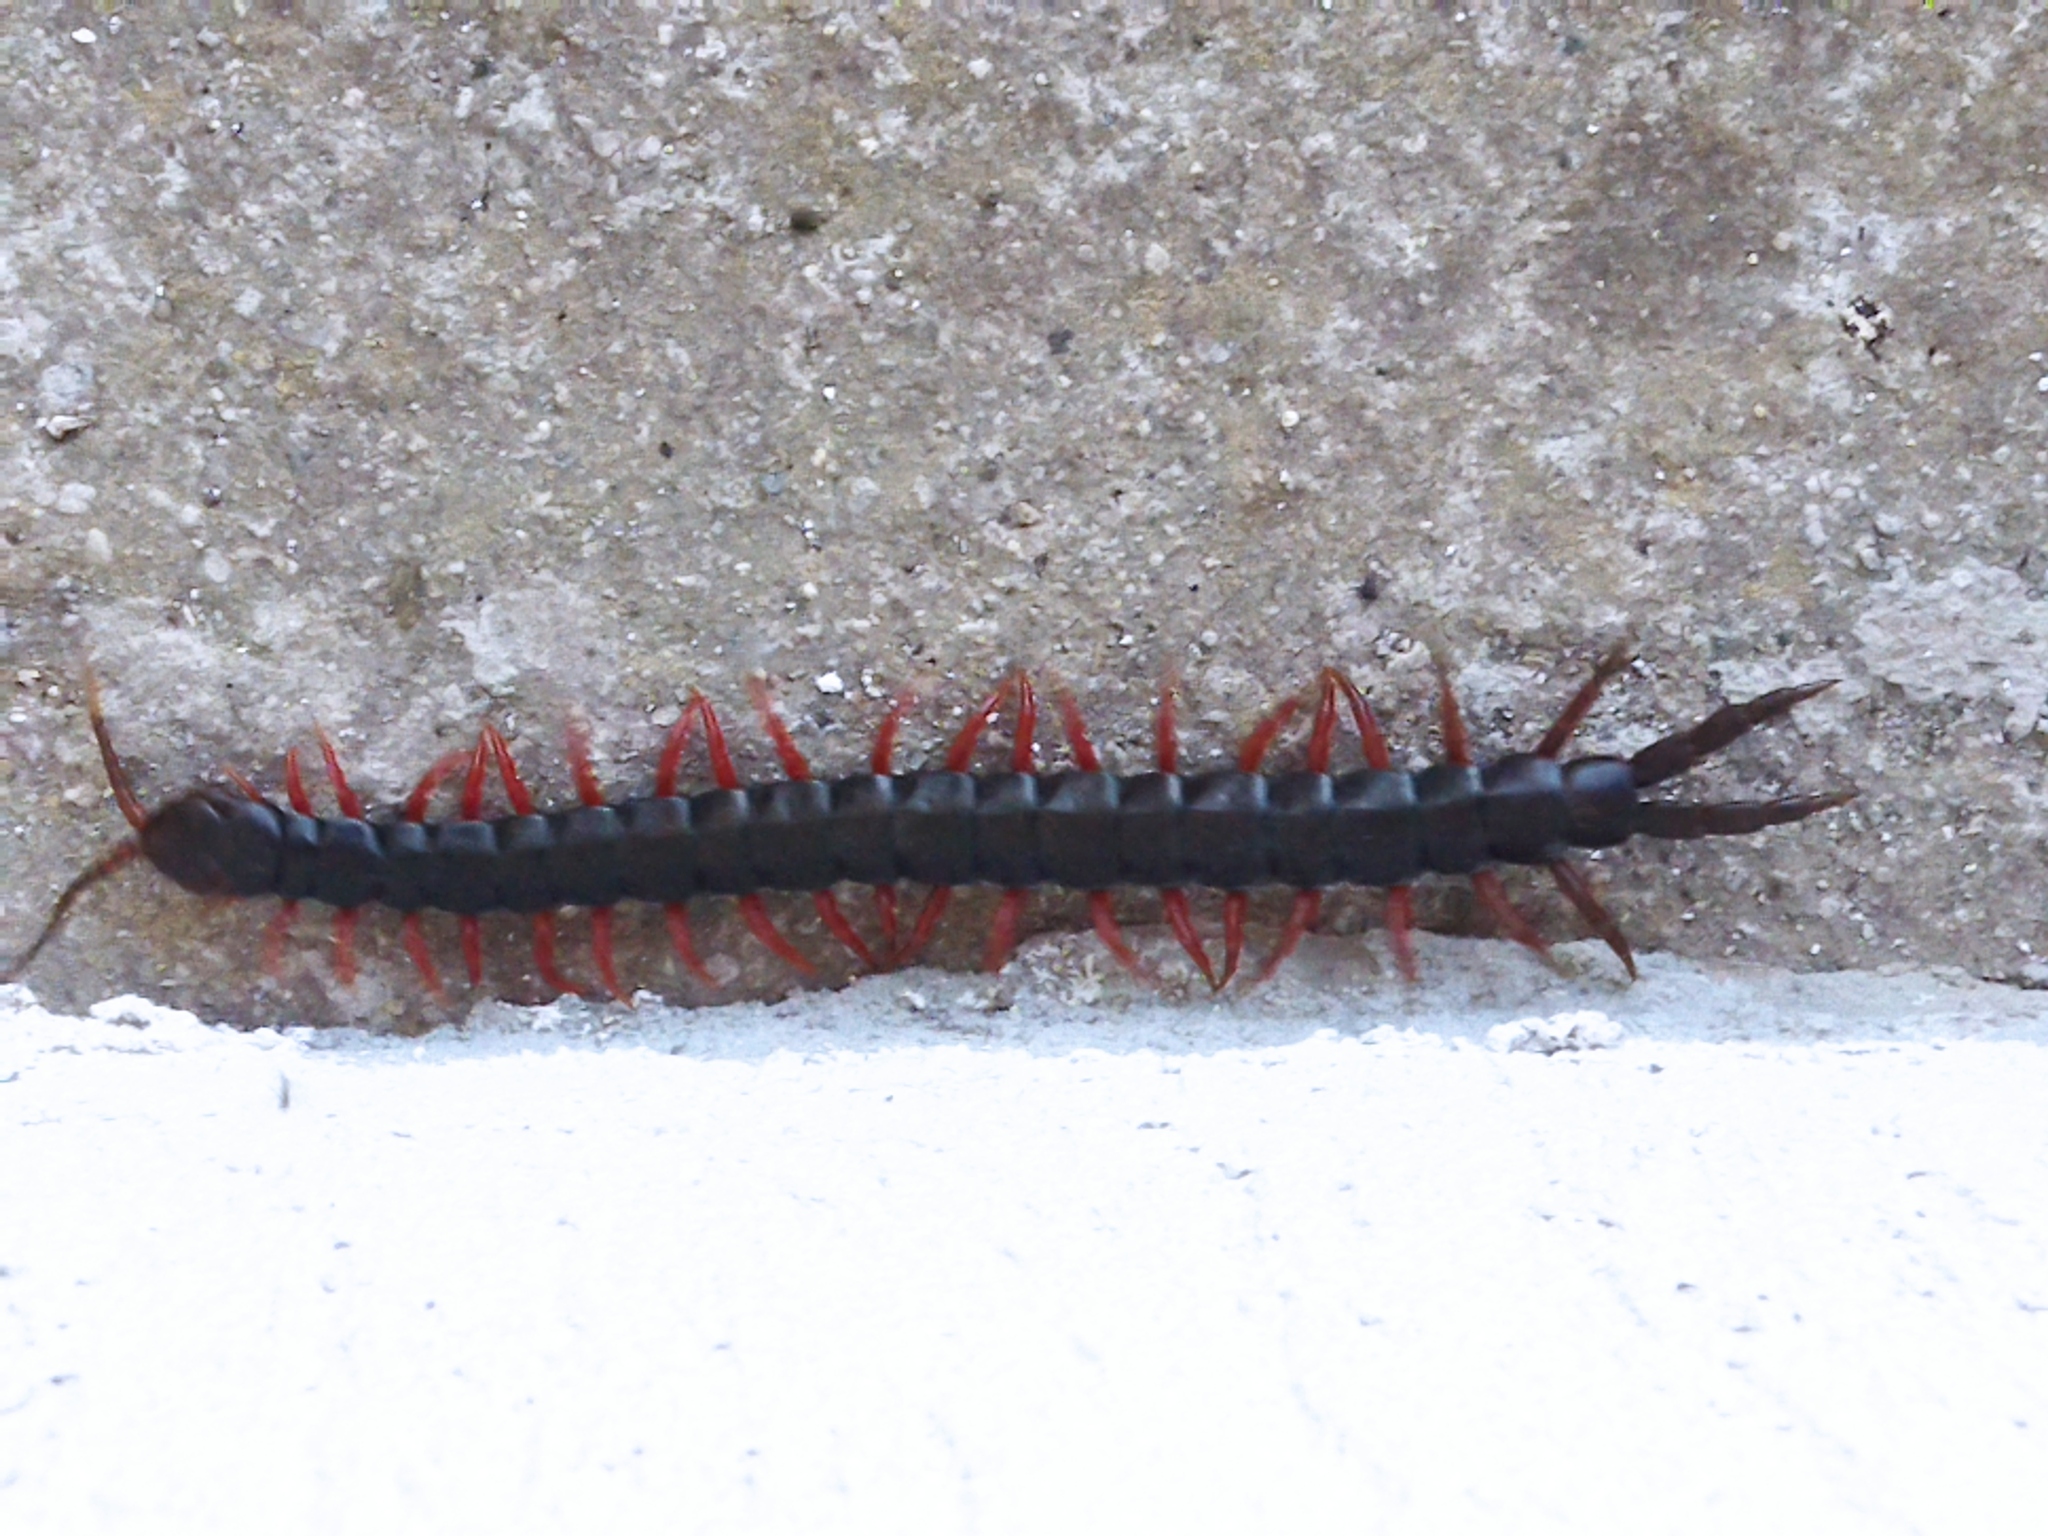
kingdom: Animalia
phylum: Arthropoda
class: Chilopoda
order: Scolopendromorpha
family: Scolopendridae
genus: Scolopendra
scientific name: Scolopendra cingulata
